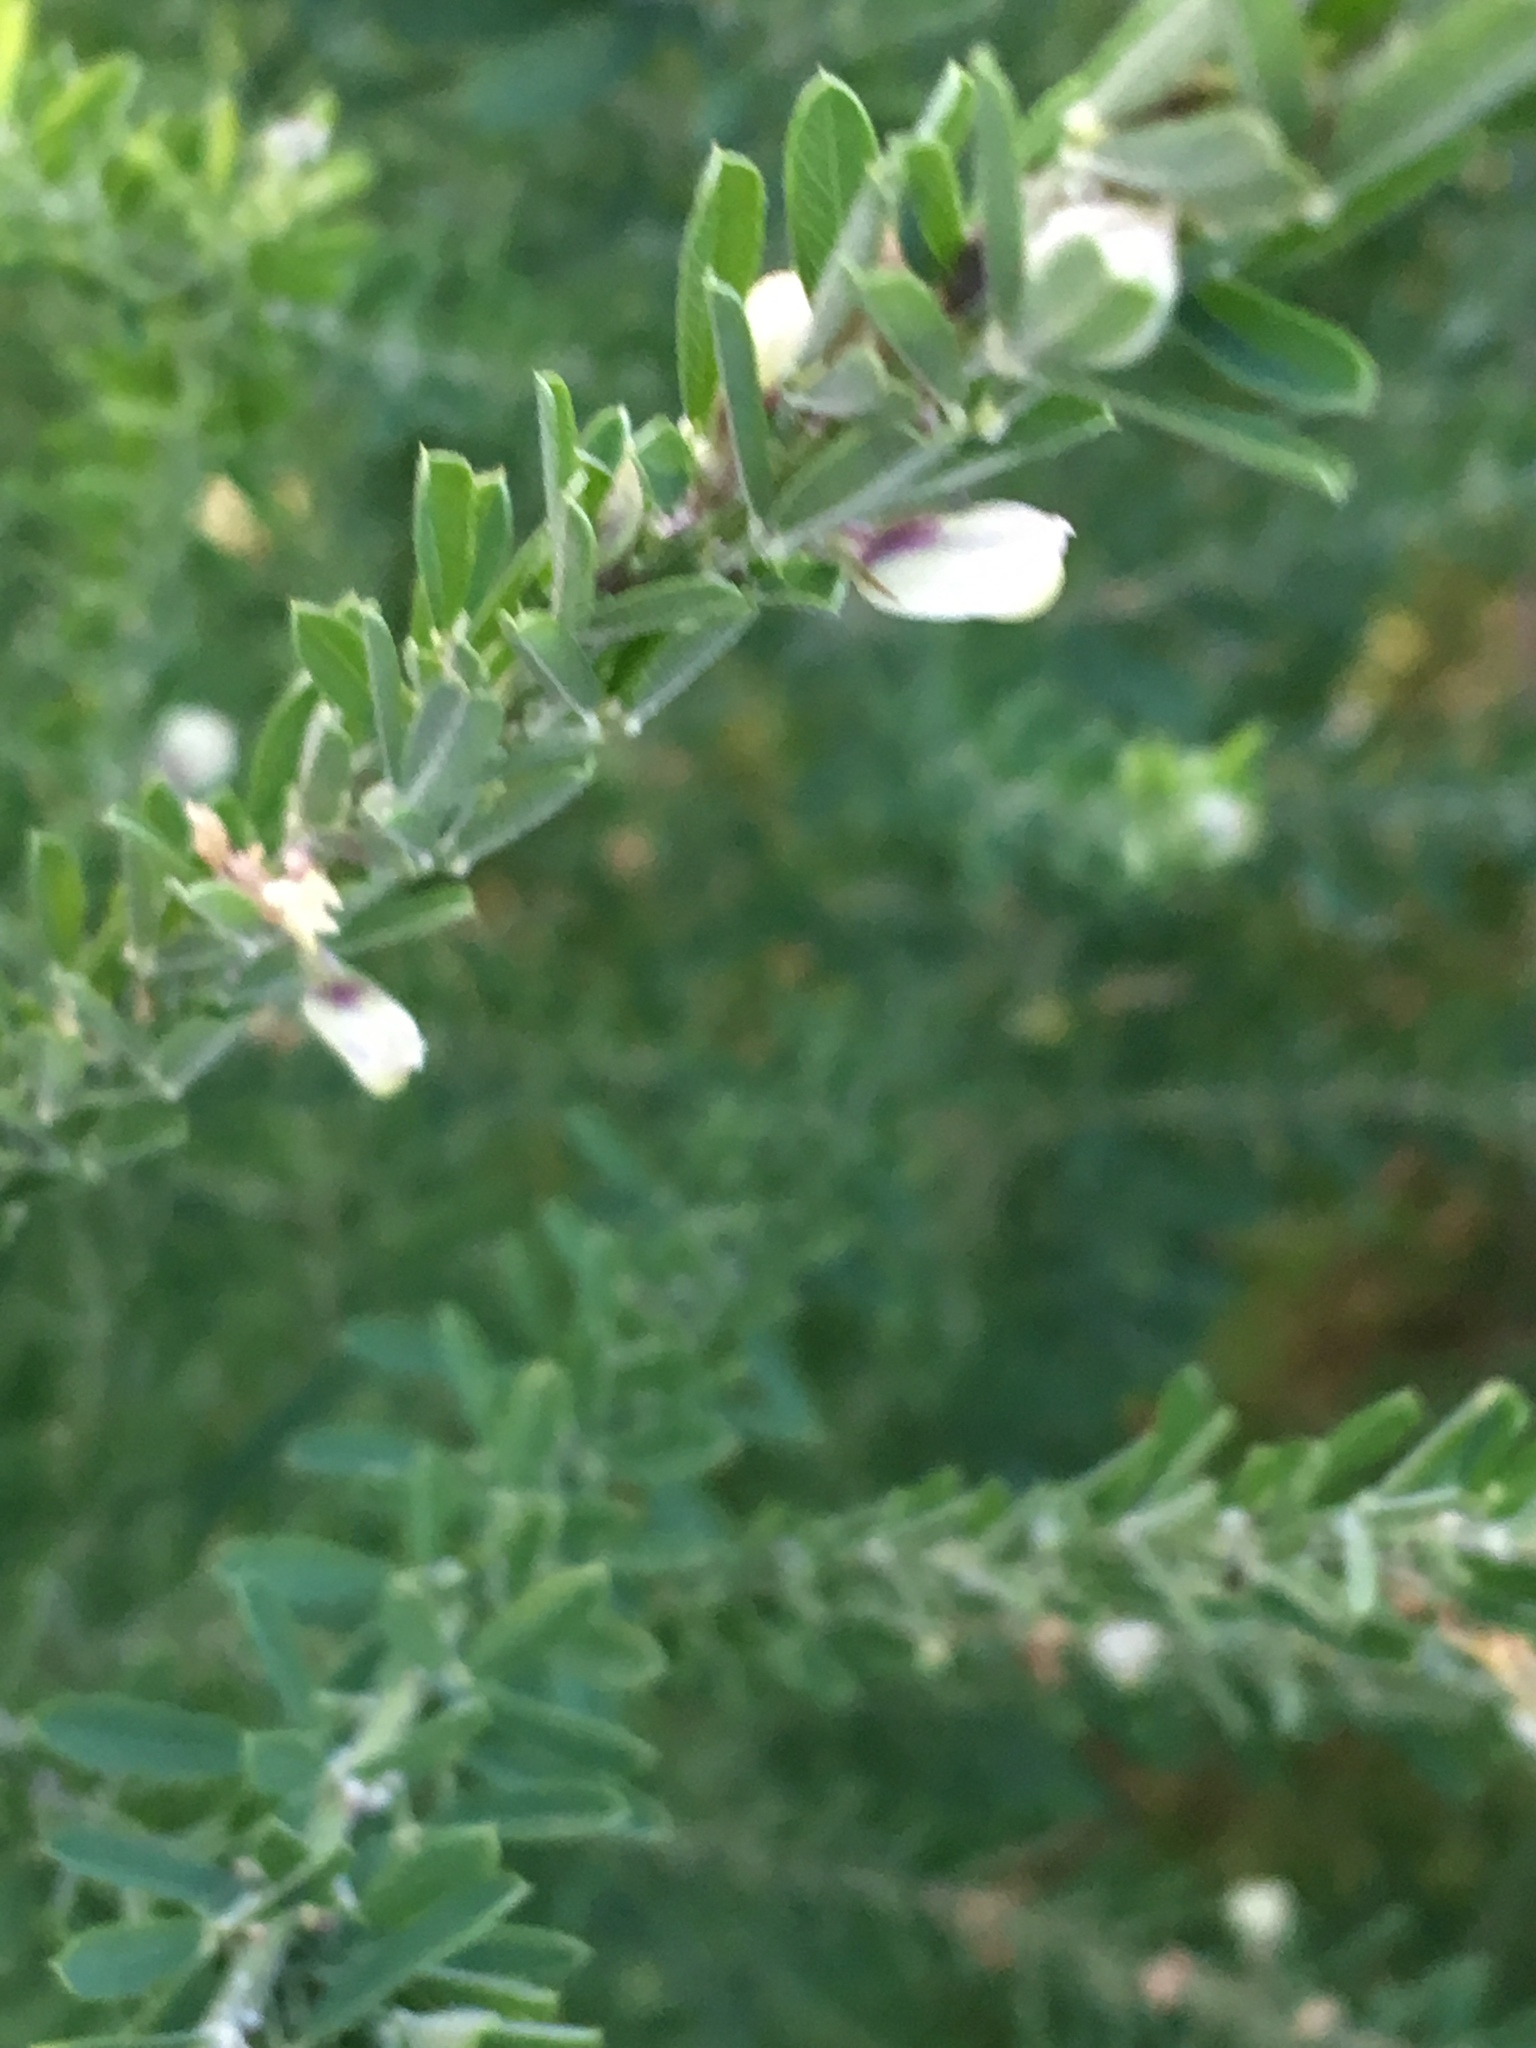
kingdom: Plantae
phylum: Tracheophyta
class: Magnoliopsida
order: Fabales
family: Fabaceae
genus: Lespedeza
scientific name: Lespedeza cuneata
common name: Chinese bush-clover
